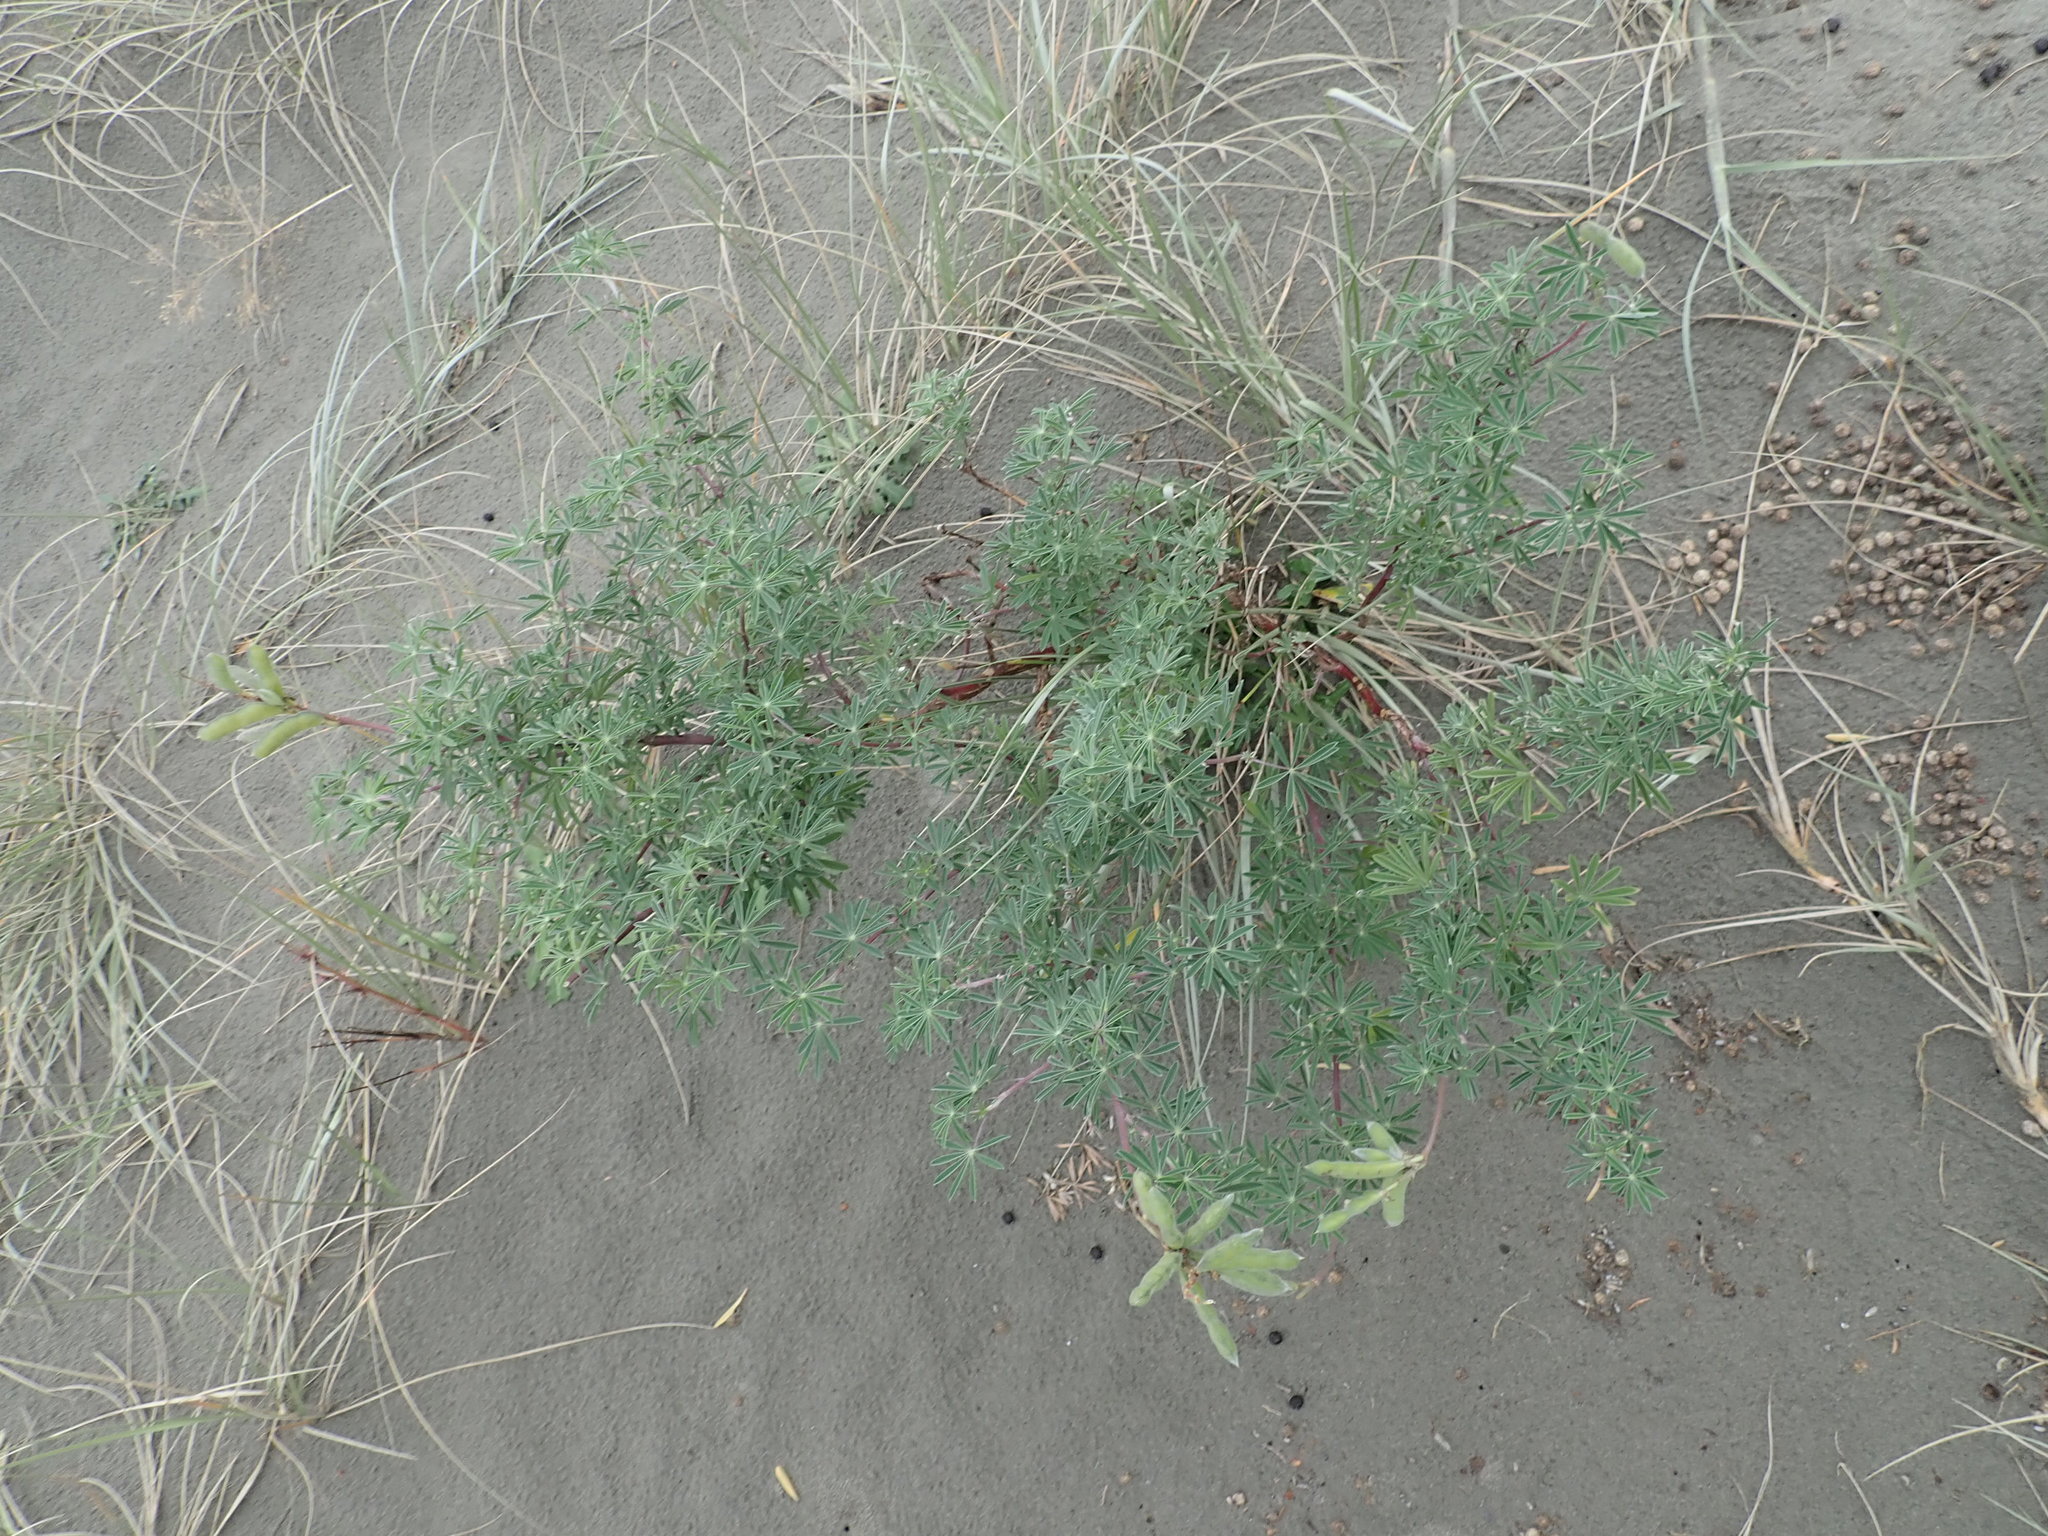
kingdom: Plantae
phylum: Tracheophyta
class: Magnoliopsida
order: Fabales
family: Fabaceae
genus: Lupinus
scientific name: Lupinus arboreus
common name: Yellow bush lupine
